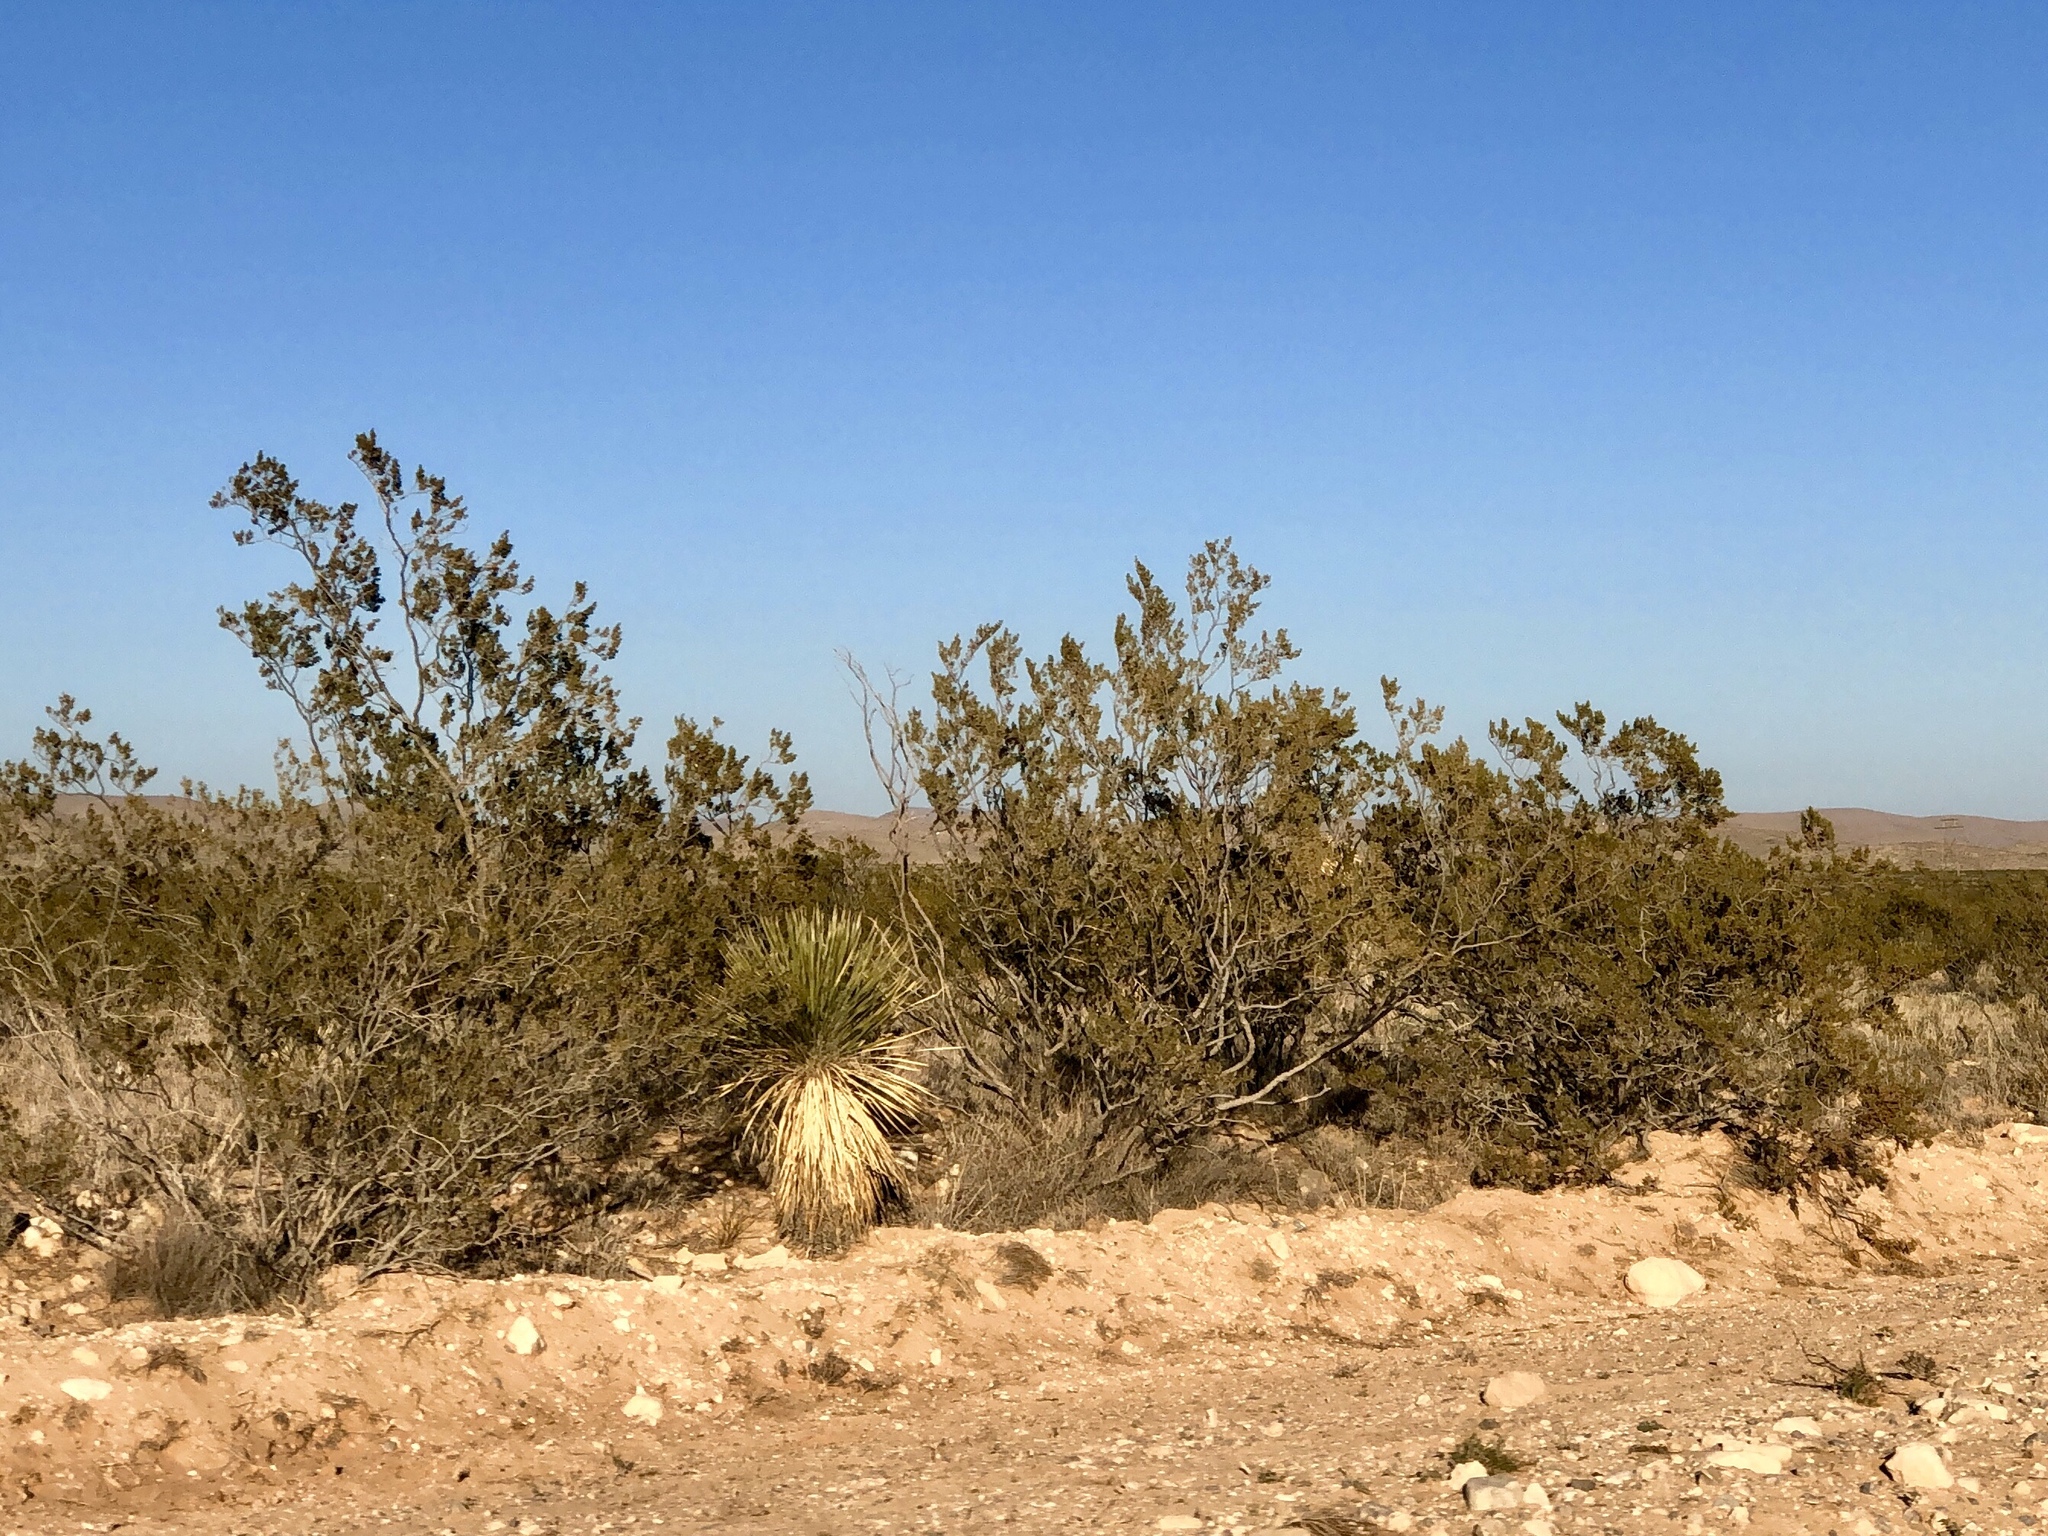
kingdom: Plantae
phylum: Tracheophyta
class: Magnoliopsida
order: Zygophyllales
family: Zygophyllaceae
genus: Larrea
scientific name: Larrea tridentata
